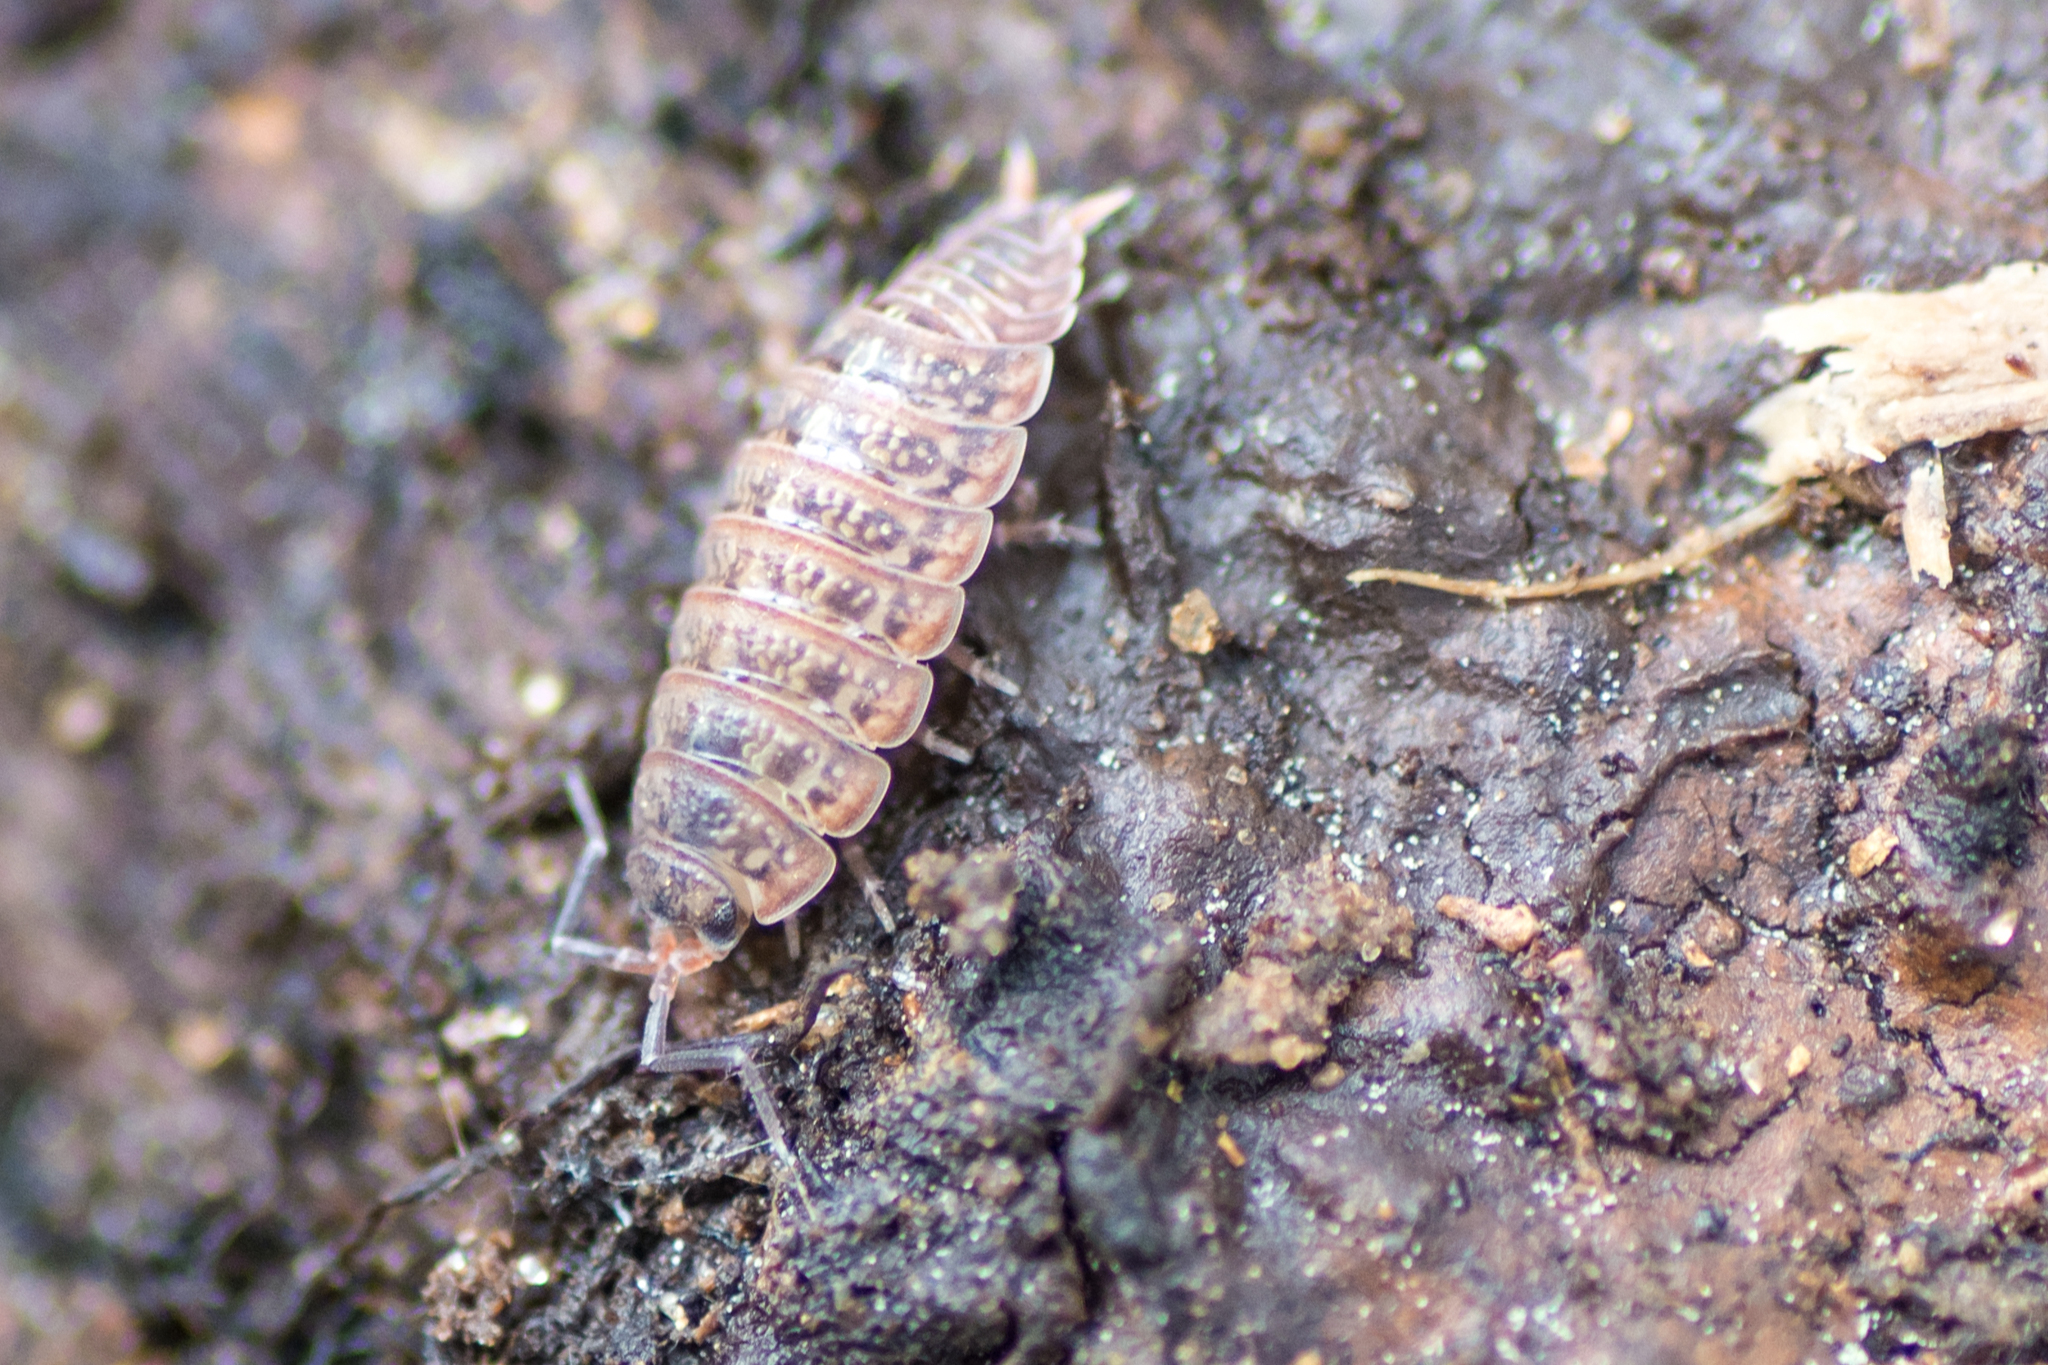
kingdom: Animalia
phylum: Arthropoda
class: Malacostraca
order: Isopoda
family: Porcellionidae
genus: Porcellionides
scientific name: Porcellionides virgatus
